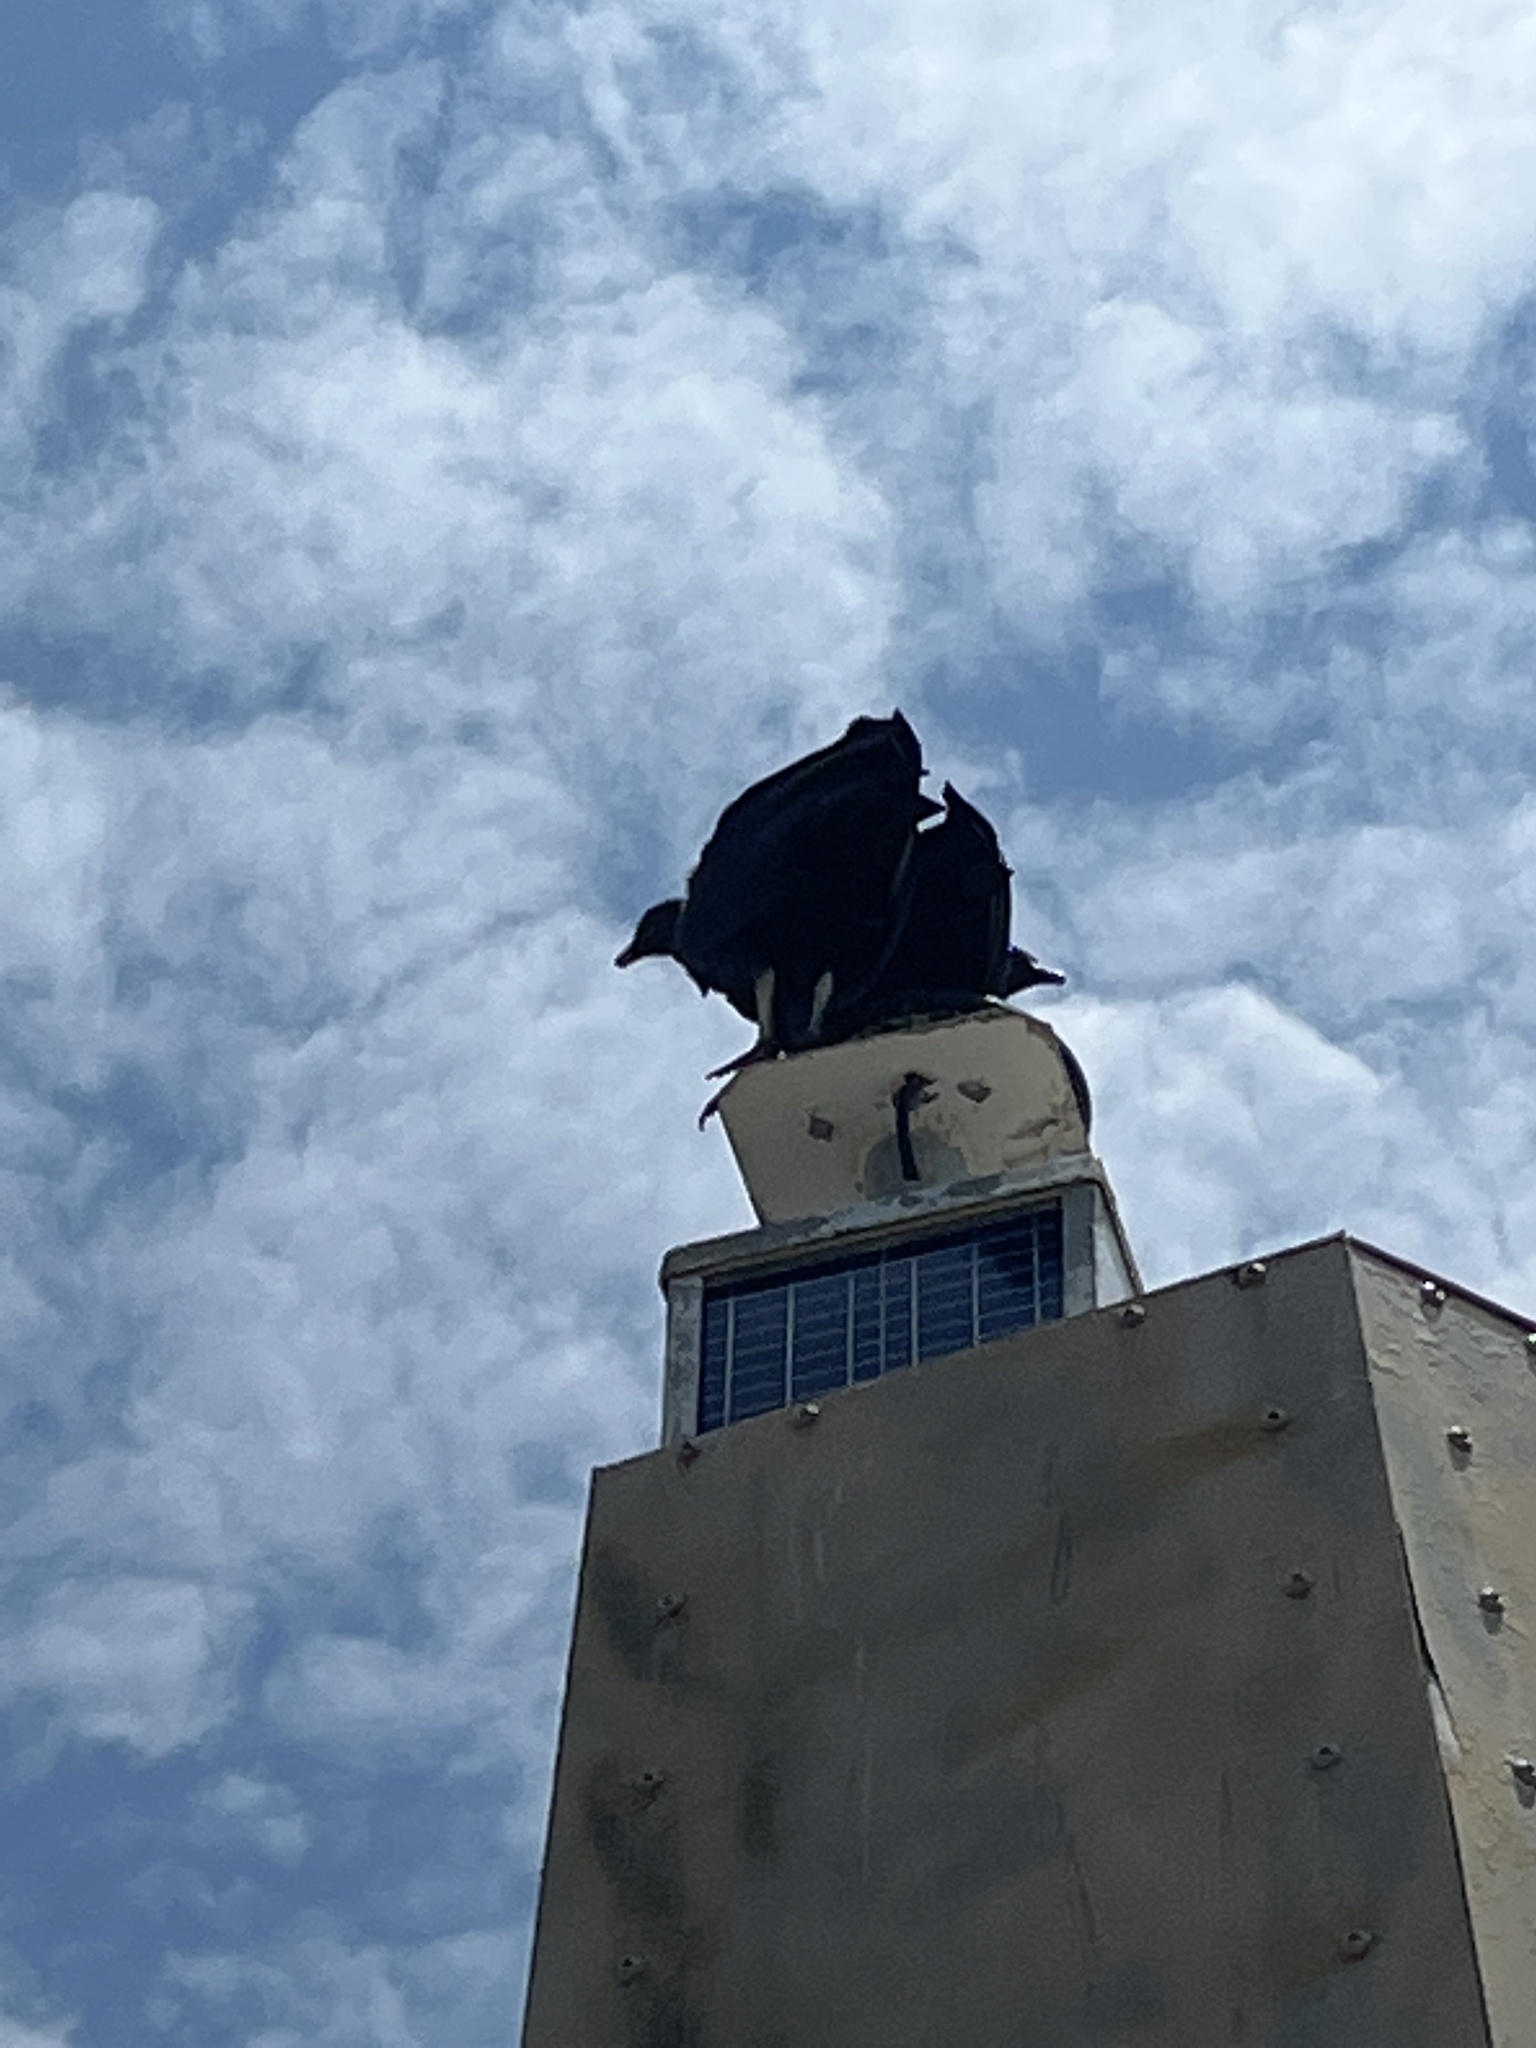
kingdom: Animalia
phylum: Chordata
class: Aves
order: Accipitriformes
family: Cathartidae
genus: Coragyps
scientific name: Coragyps atratus
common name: Black vulture
